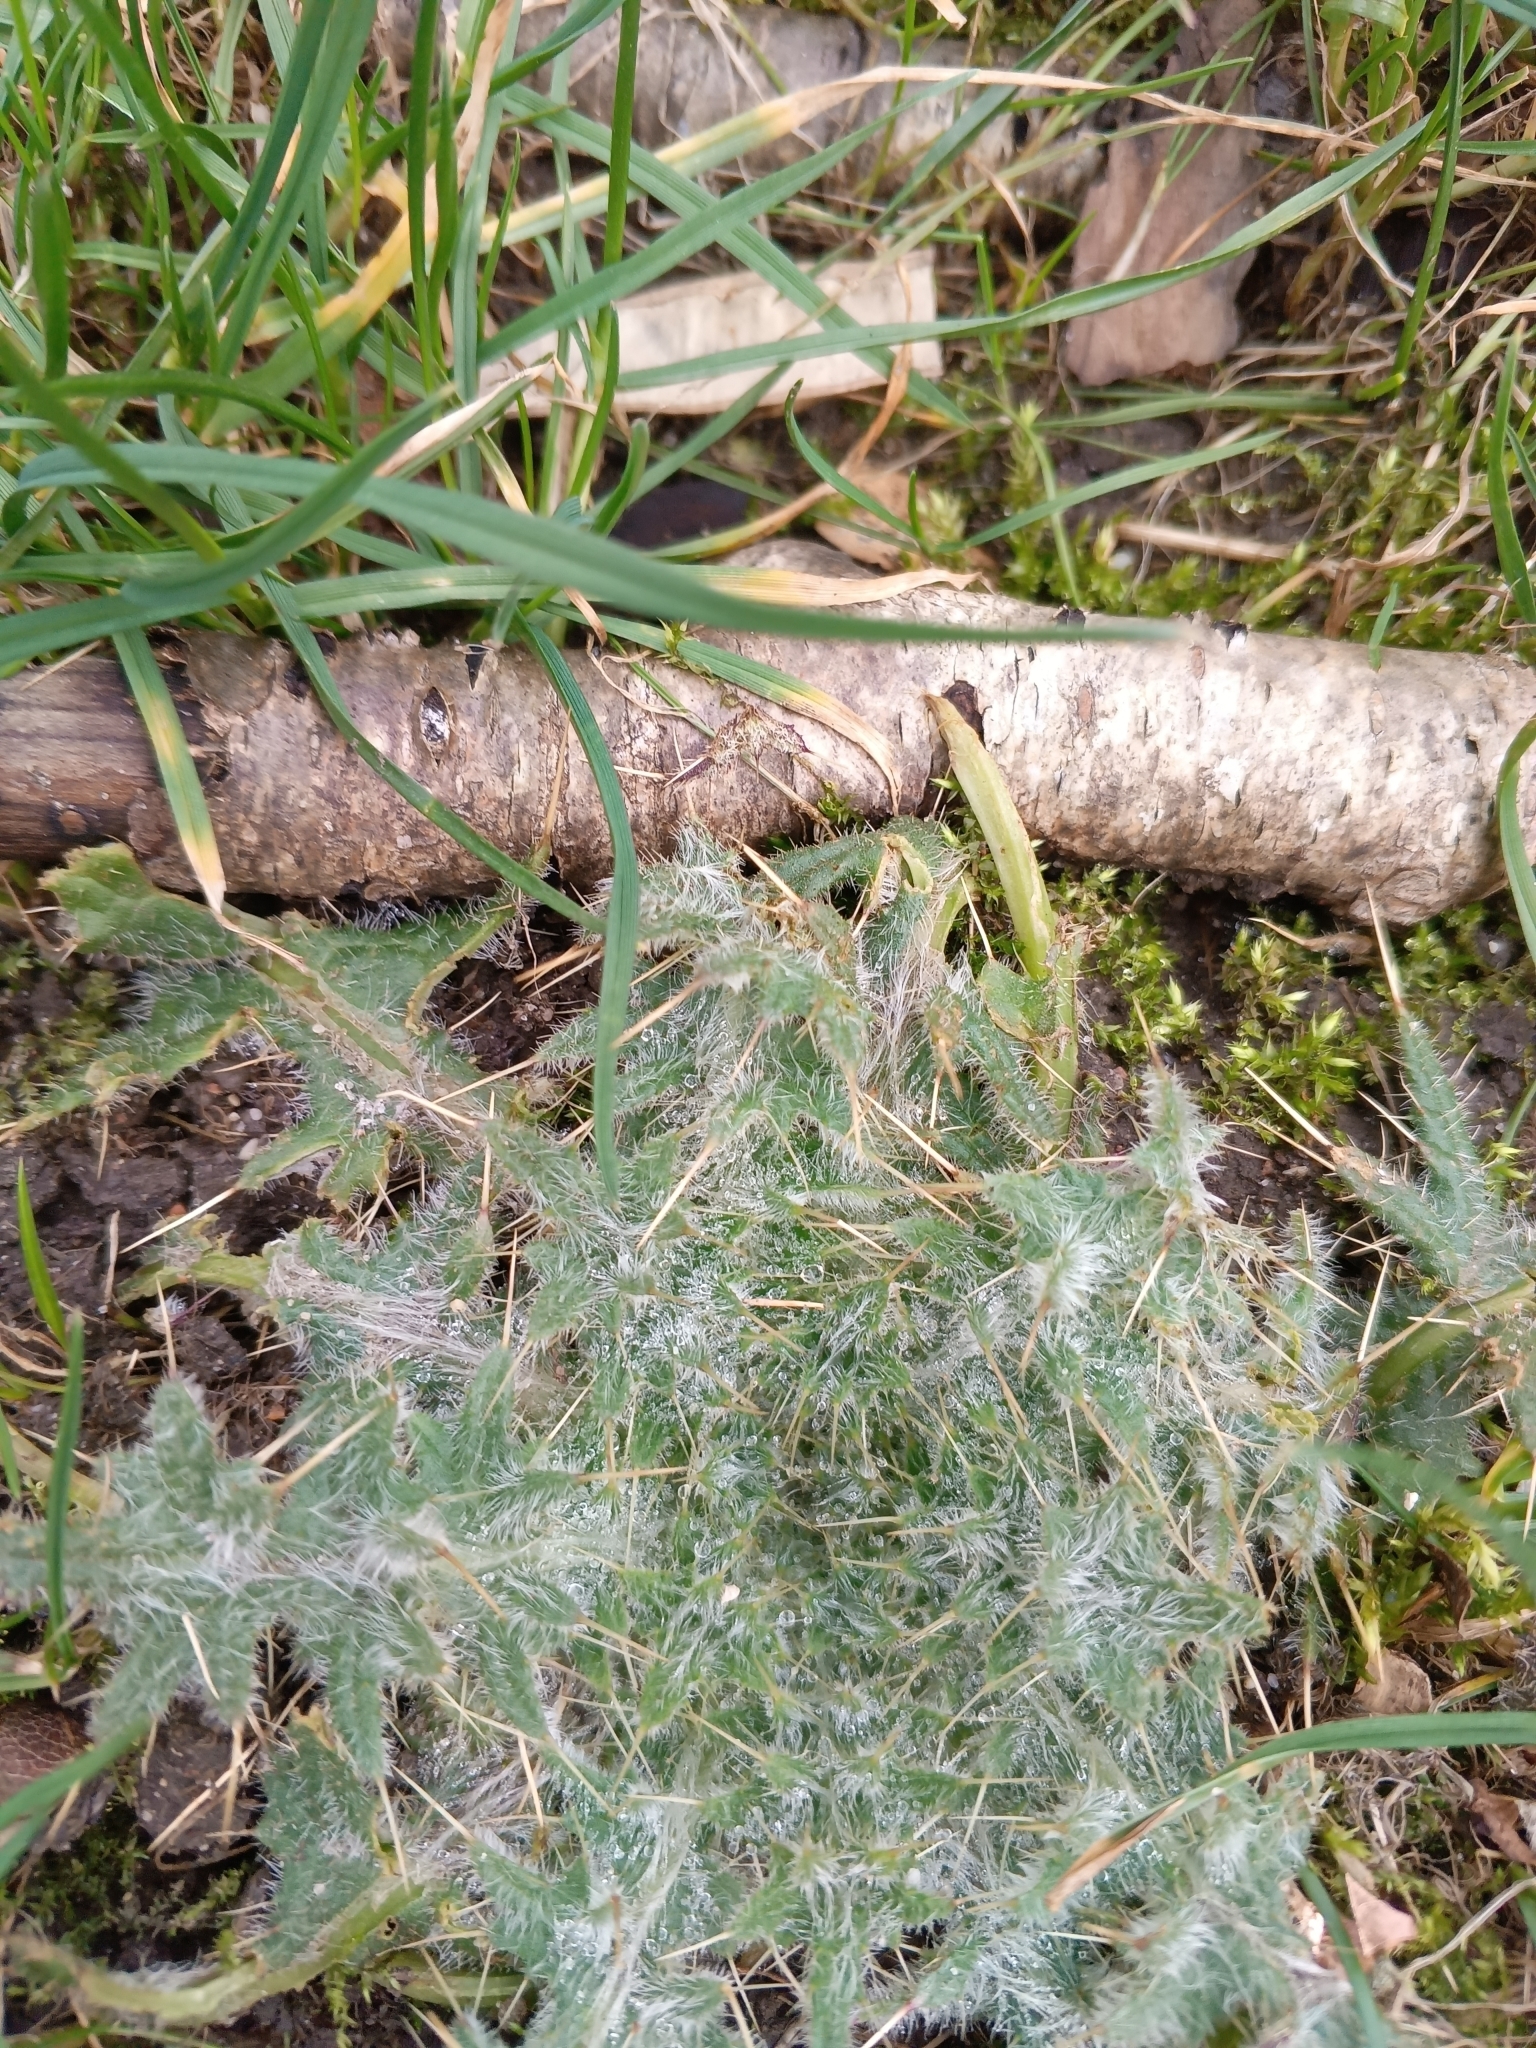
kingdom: Plantae
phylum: Tracheophyta
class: Magnoliopsida
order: Asterales
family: Asteraceae
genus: Cirsium
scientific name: Cirsium vulgare
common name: Bull thistle
